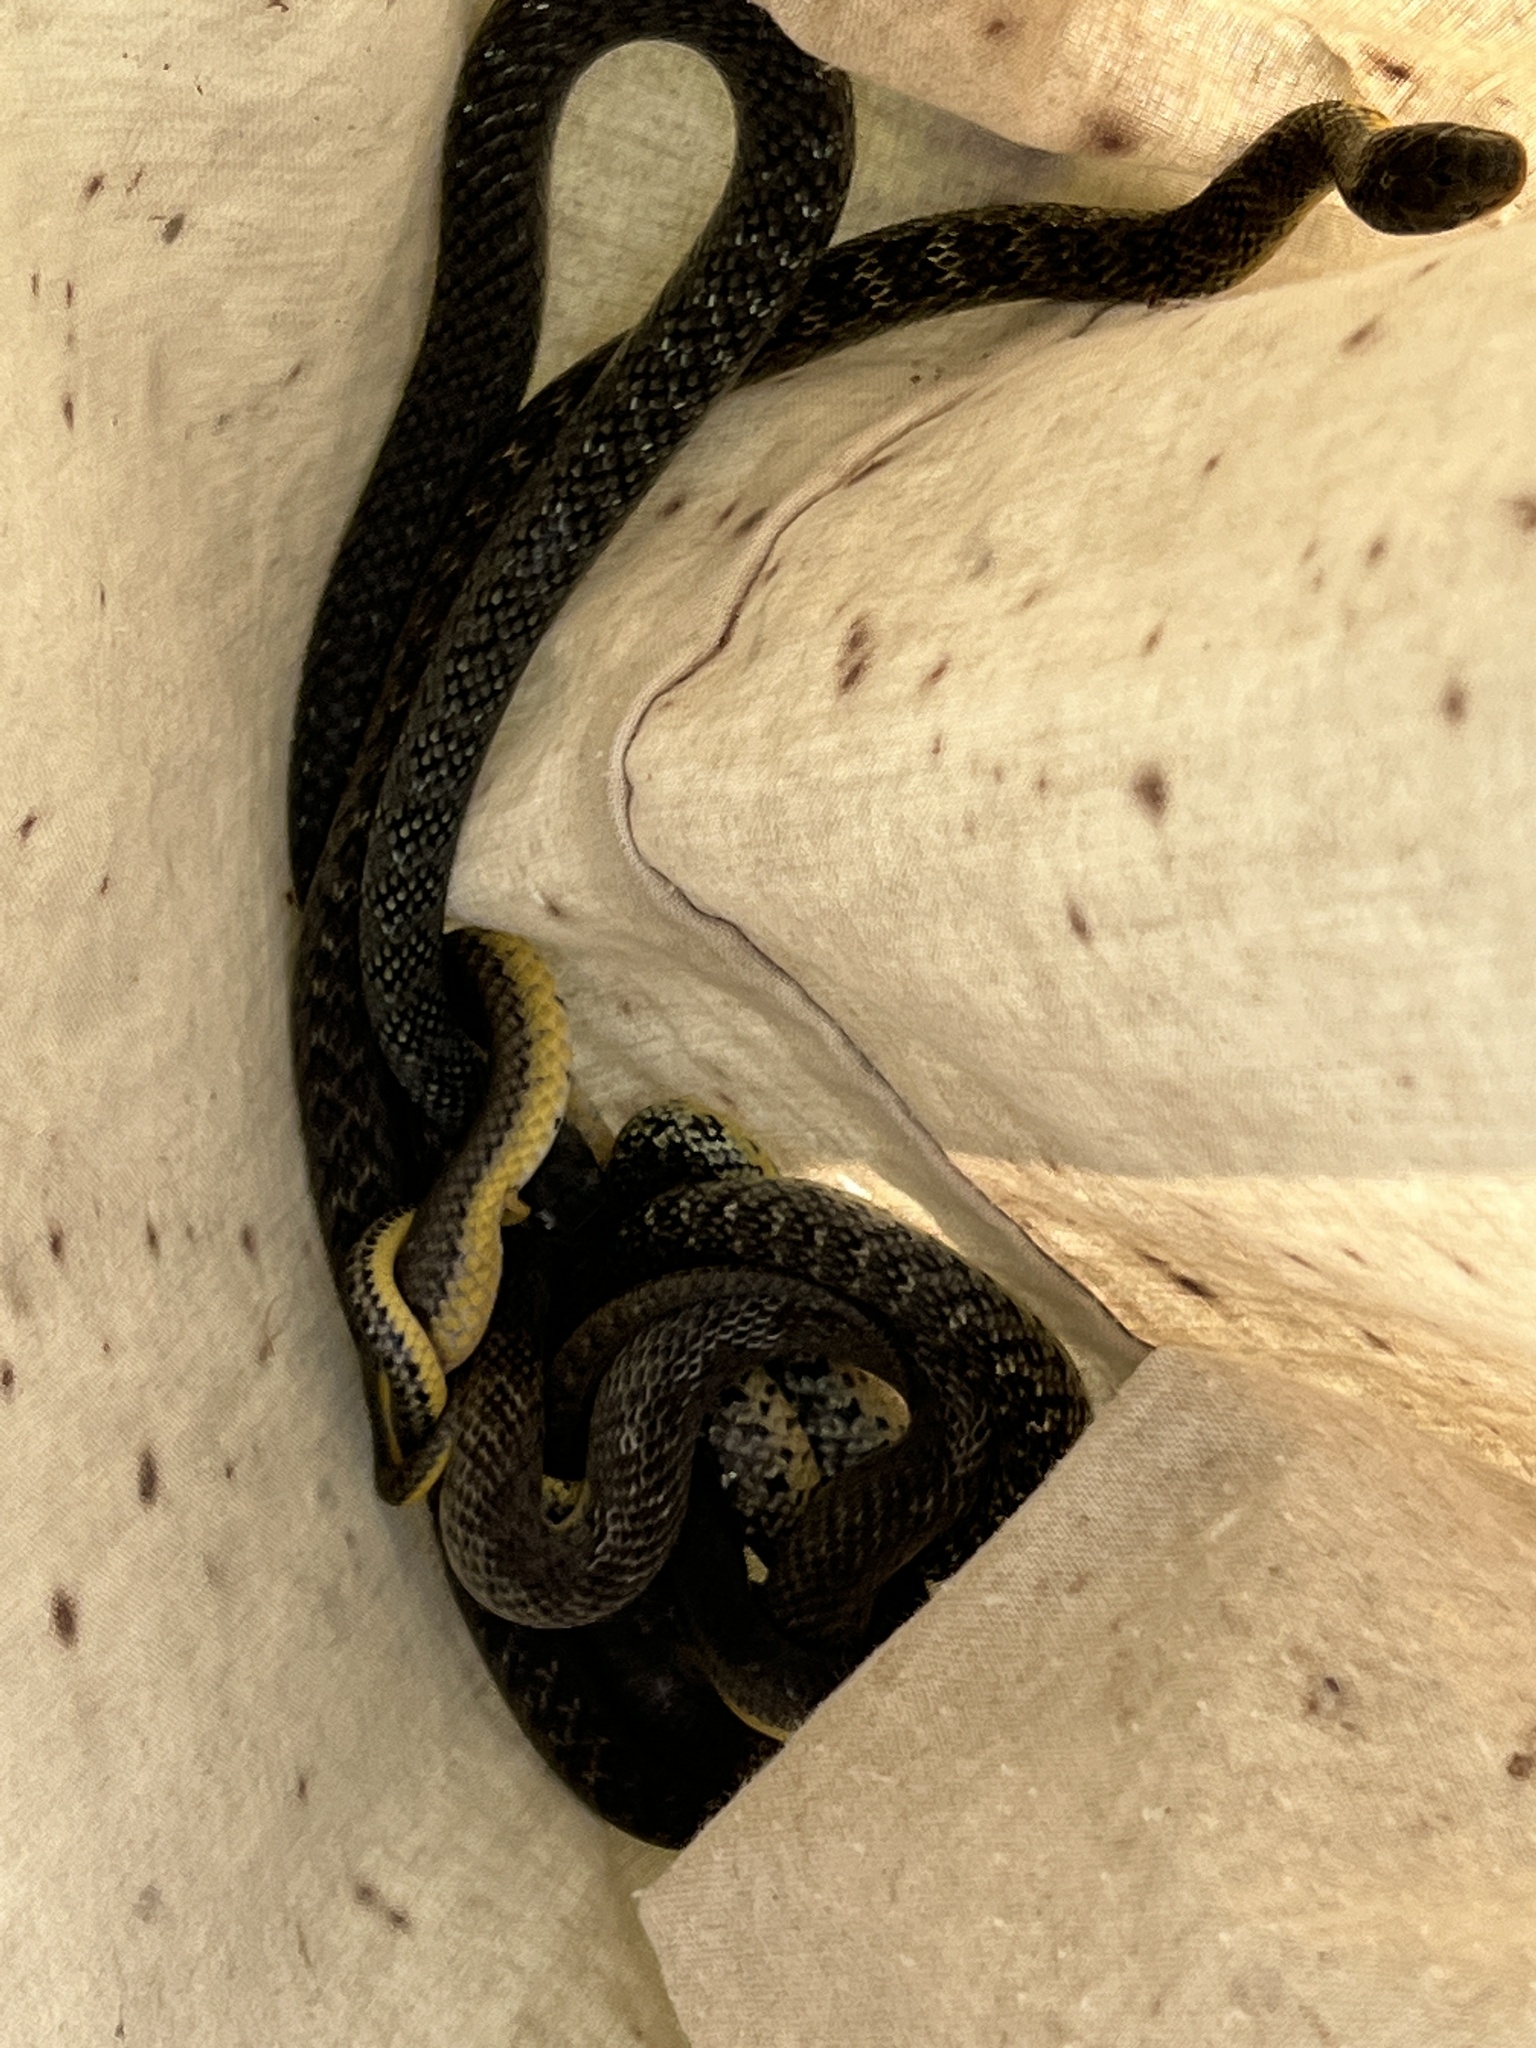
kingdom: Animalia
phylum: Chordata
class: Squamata
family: Colubridae
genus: Erythrolamprus
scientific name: Erythrolamprus poecilogyrus
